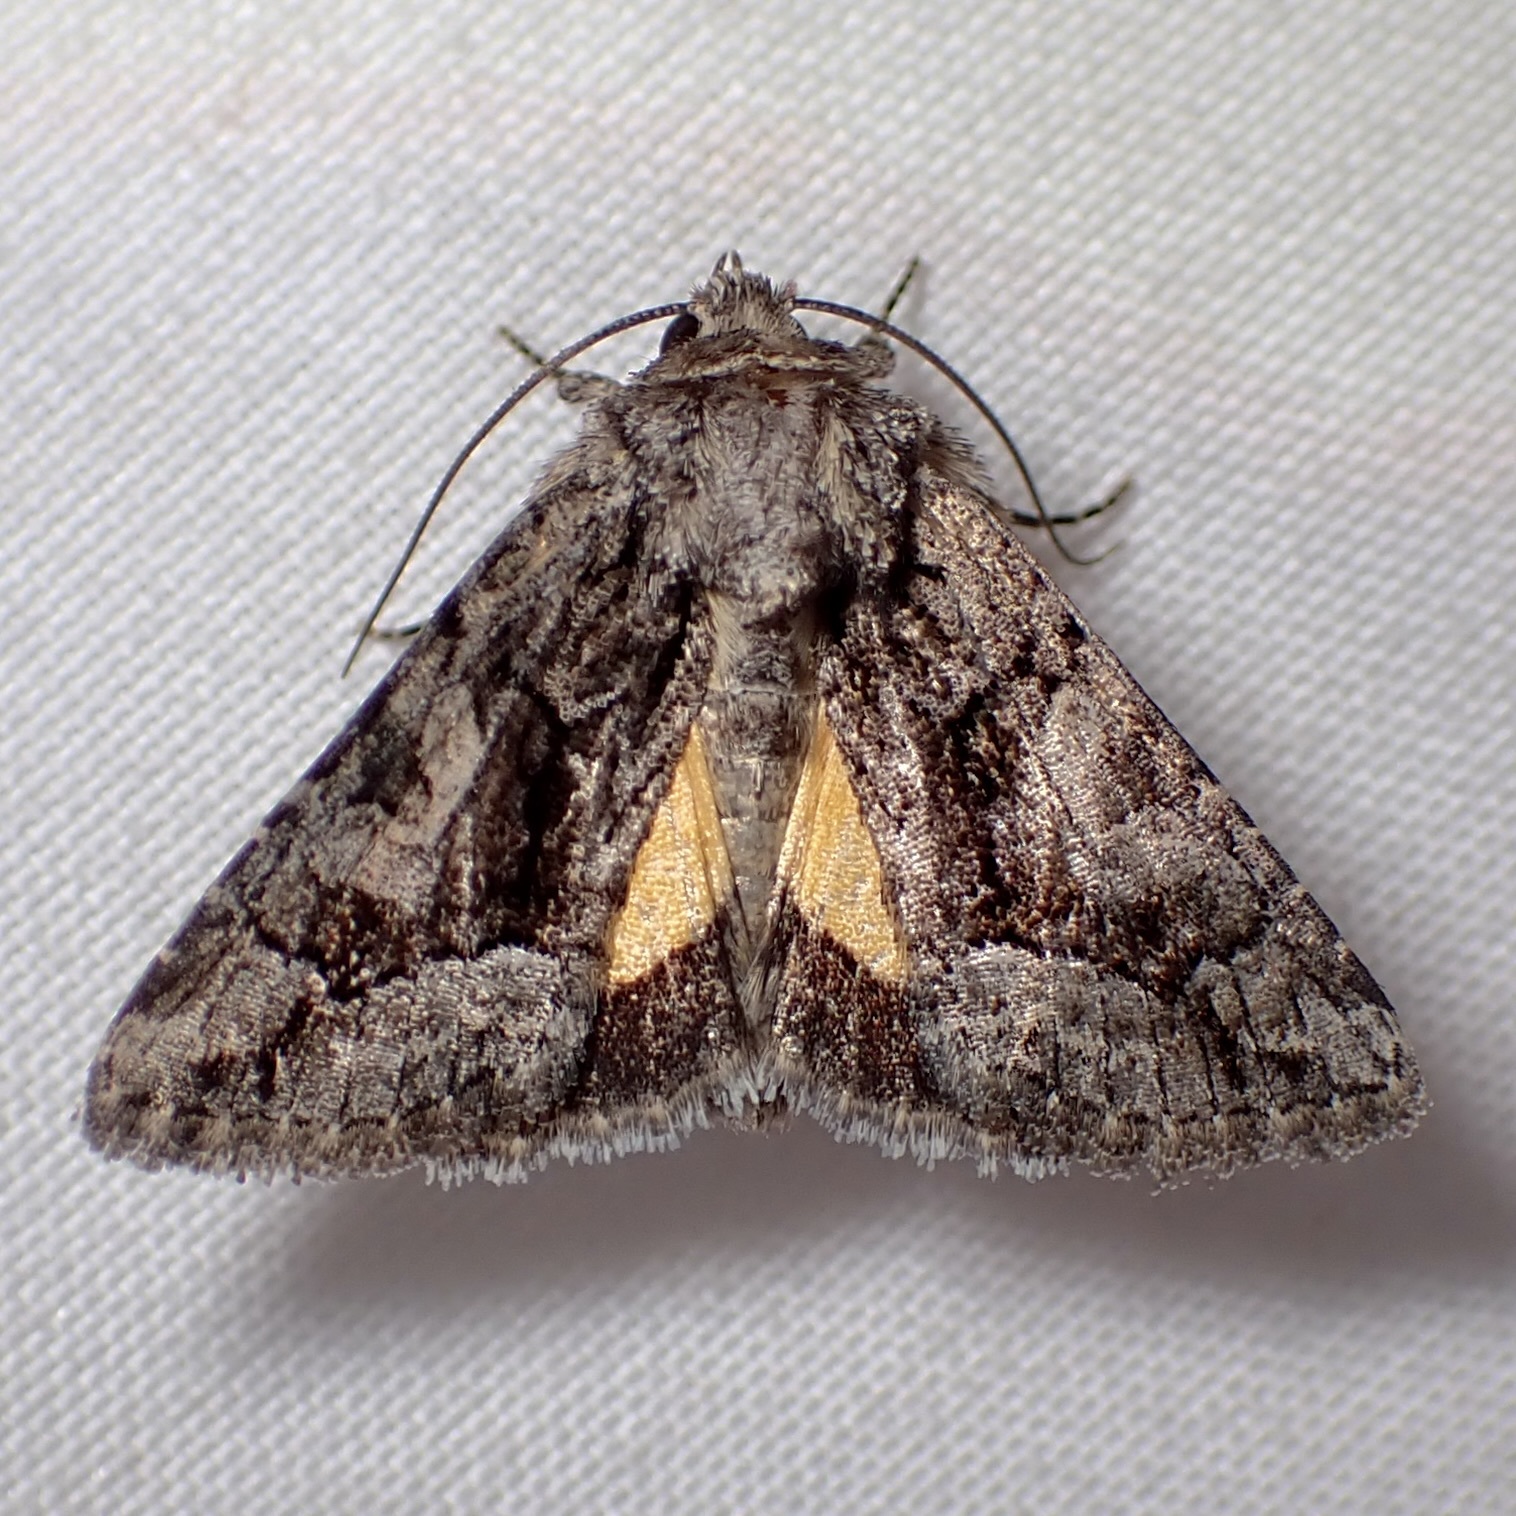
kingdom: Animalia
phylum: Arthropoda
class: Insecta
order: Lepidoptera
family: Noctuidae
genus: Pseudanarta
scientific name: Pseudanarta singula
